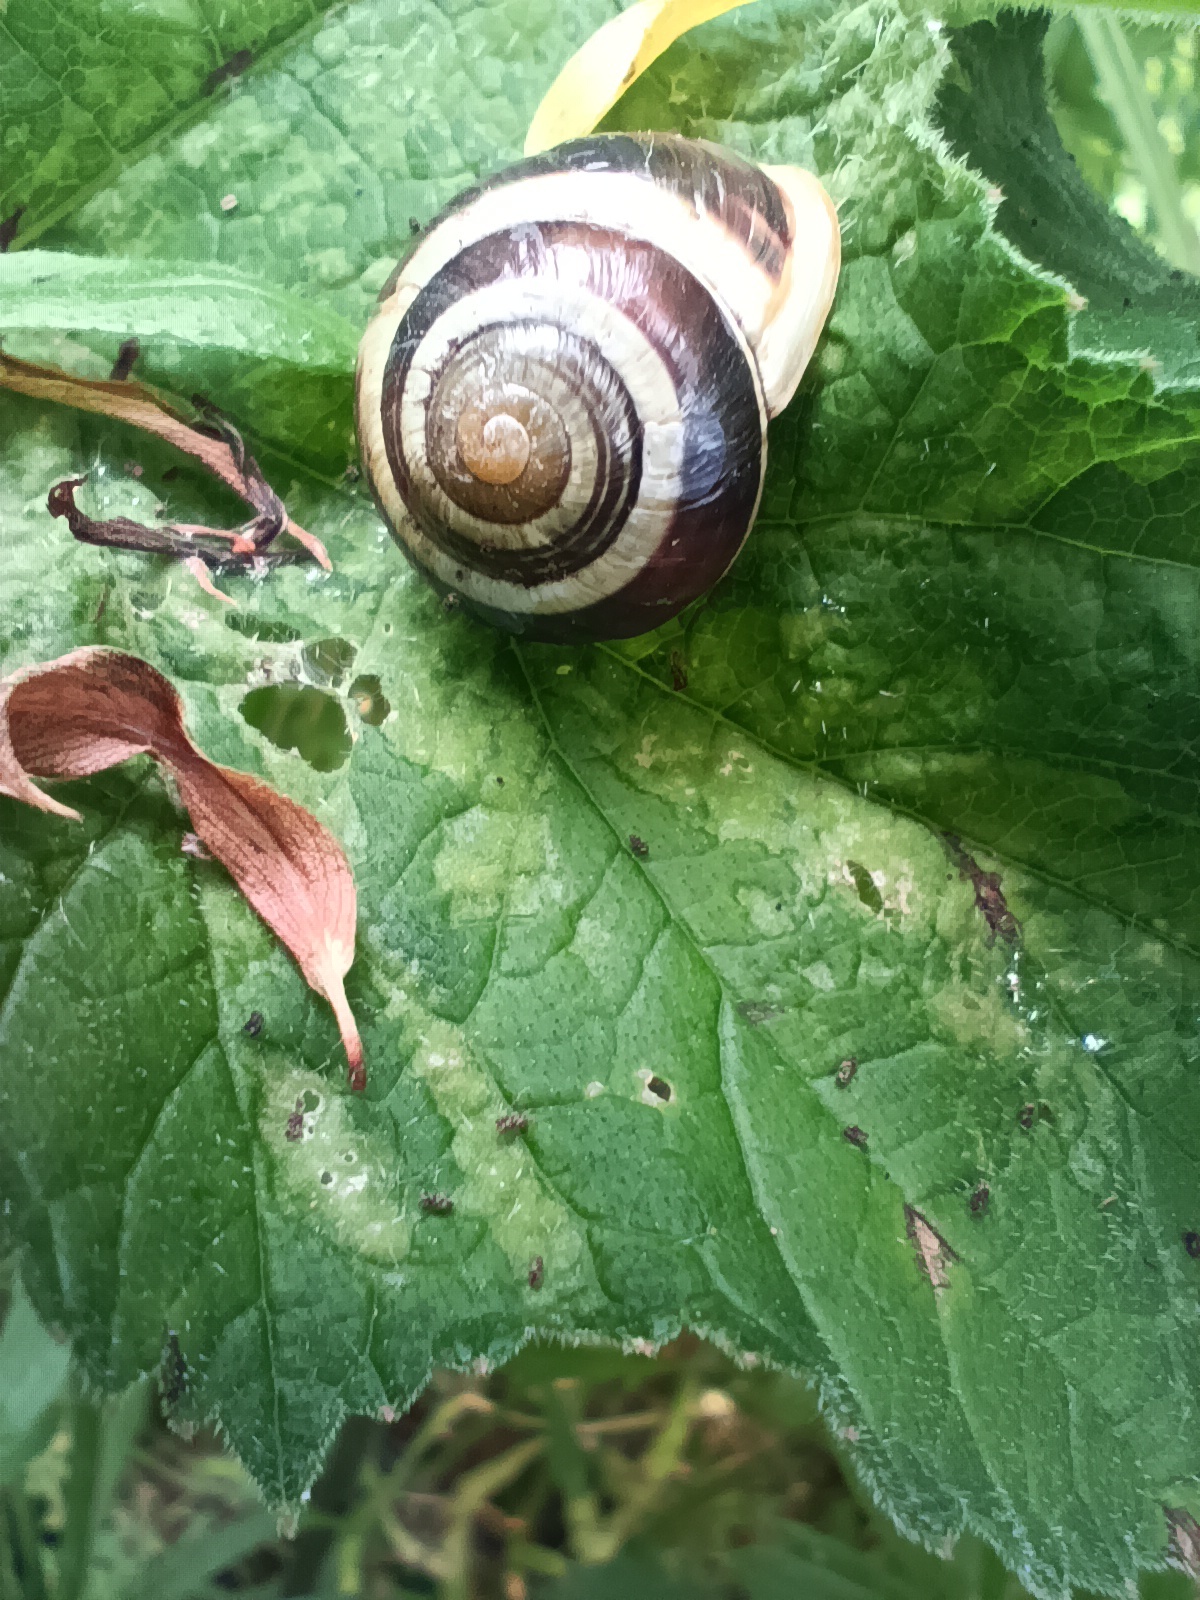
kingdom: Animalia
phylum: Mollusca
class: Gastropoda
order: Stylommatophora
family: Helicidae
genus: Cepaea
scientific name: Cepaea hortensis
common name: White-lip gardensnail
